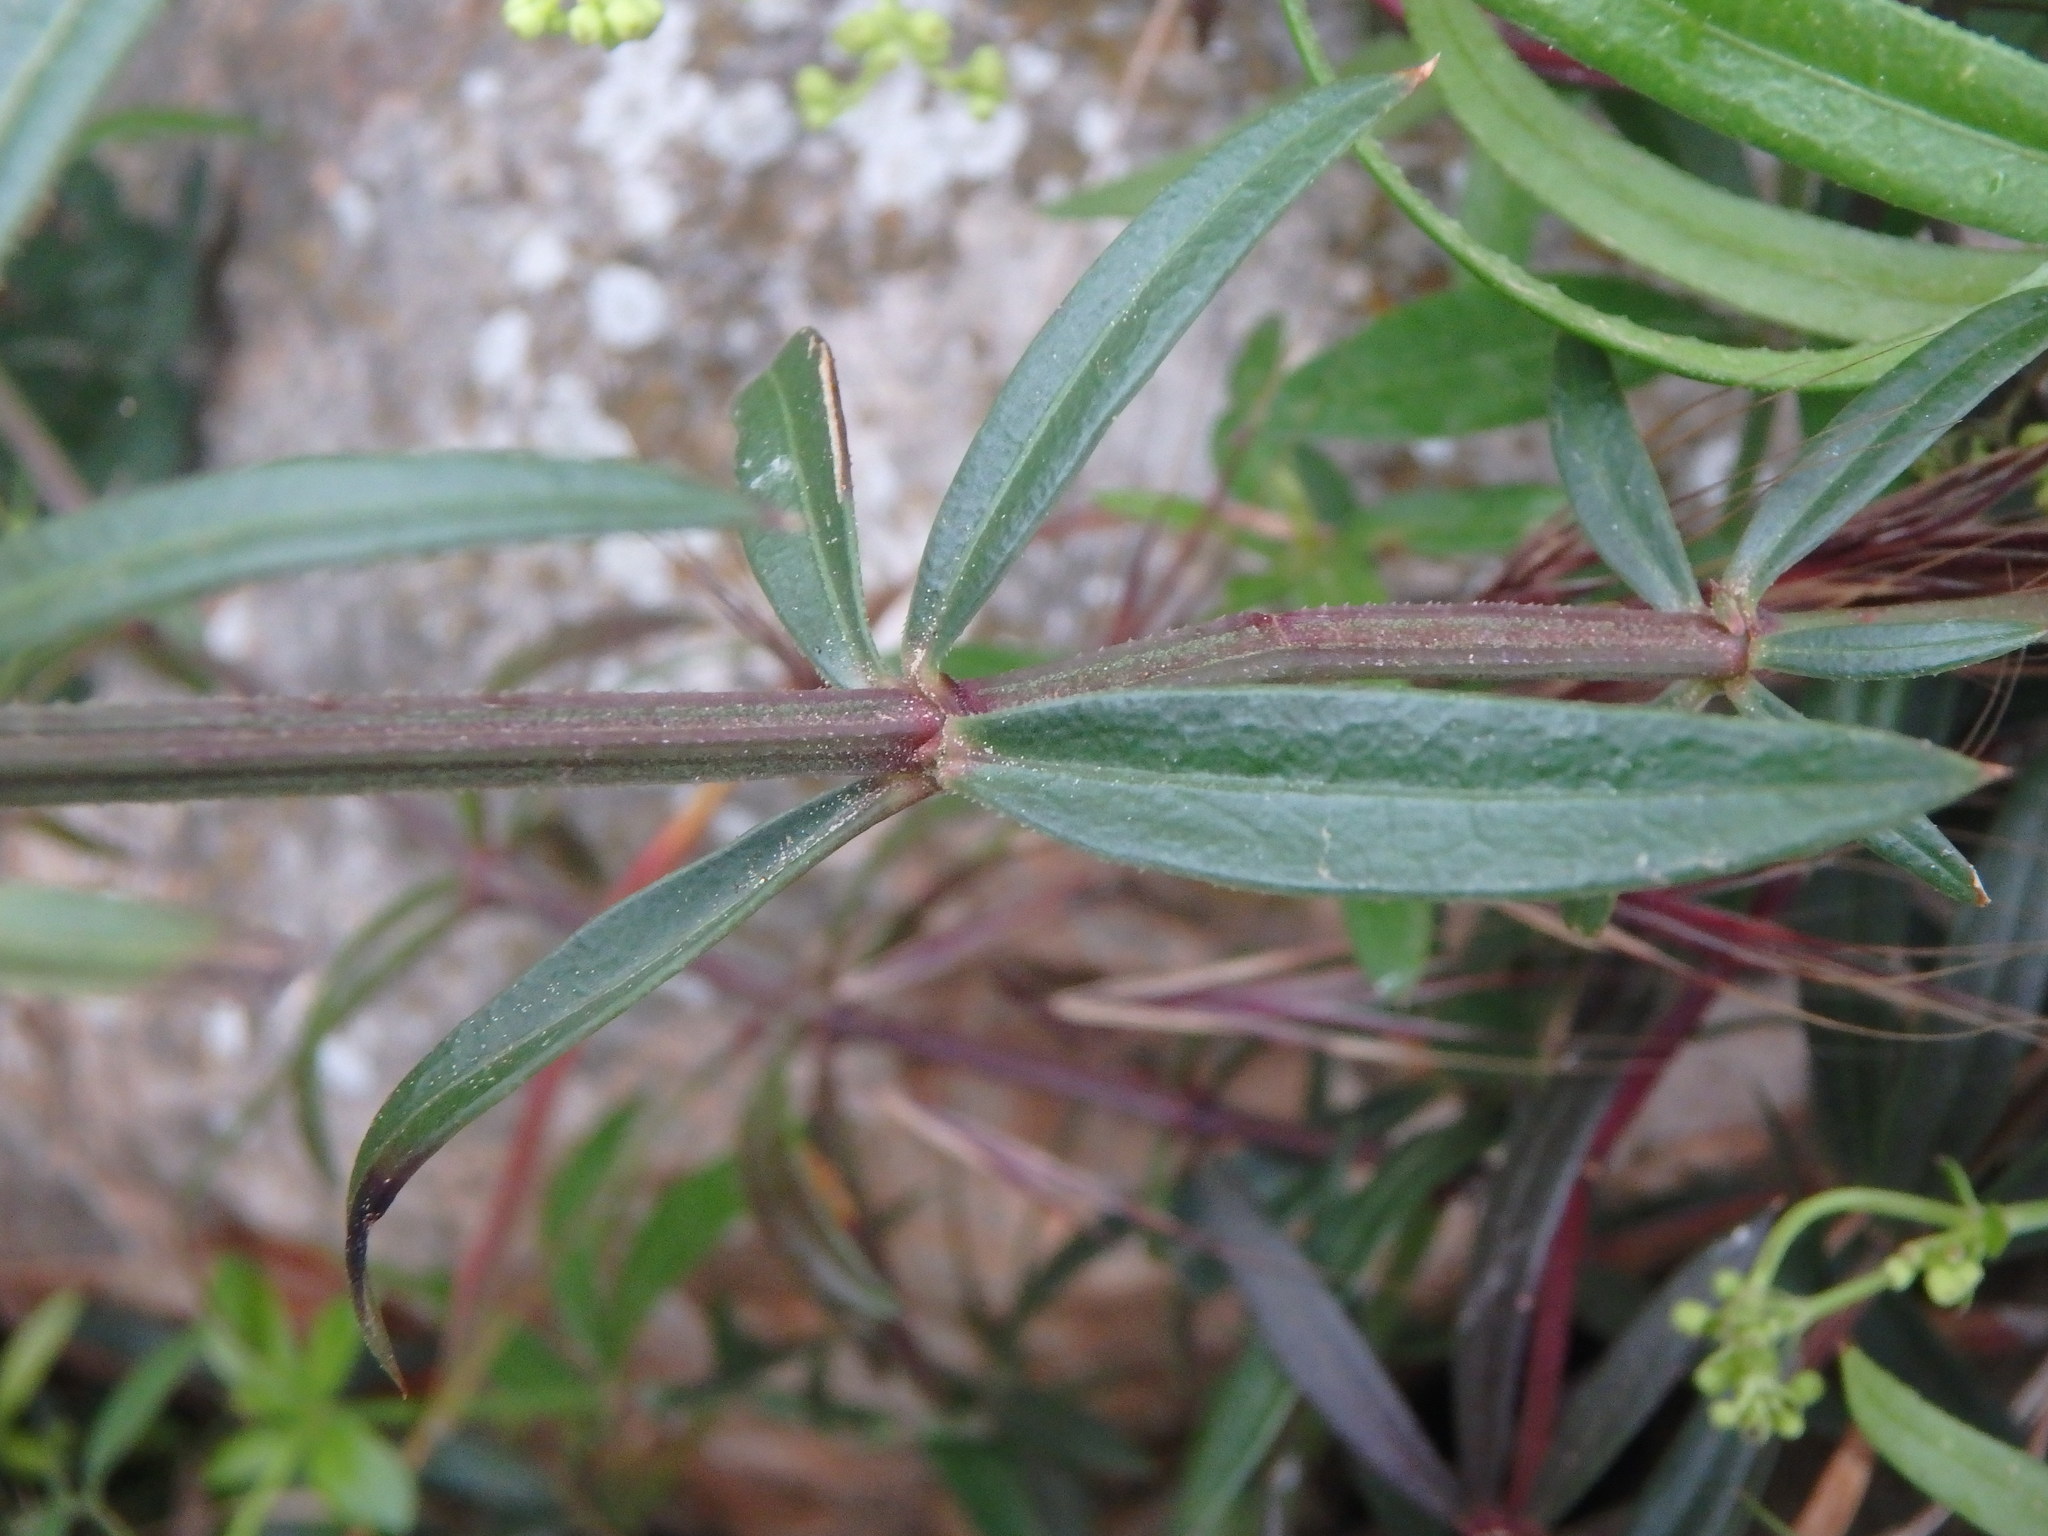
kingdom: Plantae
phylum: Tracheophyta
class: Magnoliopsida
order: Gentianales
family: Rubiaceae
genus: Rubia
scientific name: Rubia peregrina
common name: Wild madder
